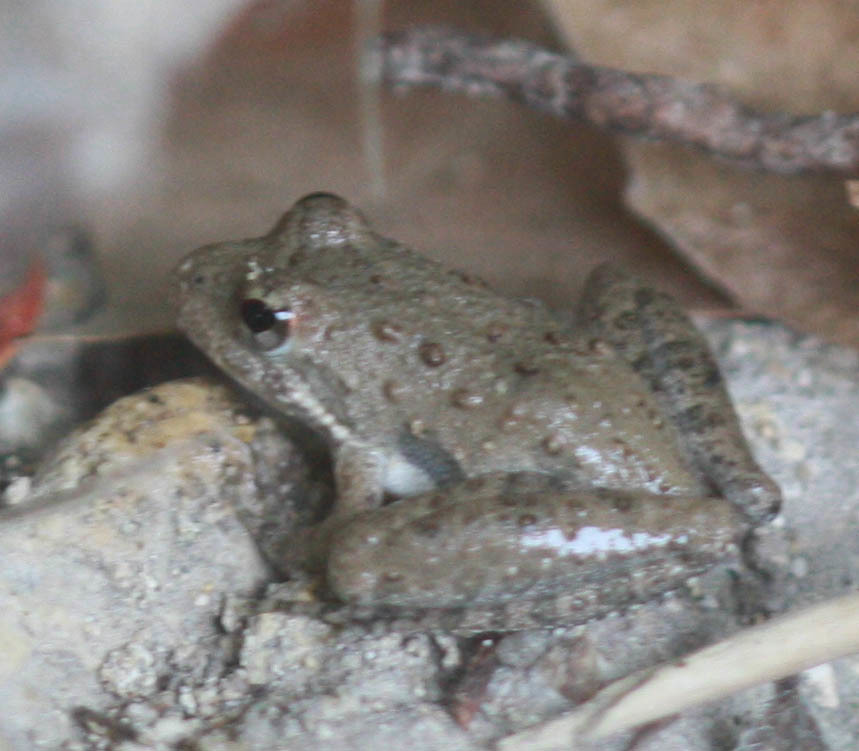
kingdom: Animalia
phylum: Chordata
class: Amphibia
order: Anura
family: Hylidae
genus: Acris
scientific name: Acris blanchardi
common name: Blanchard's cricket frog
